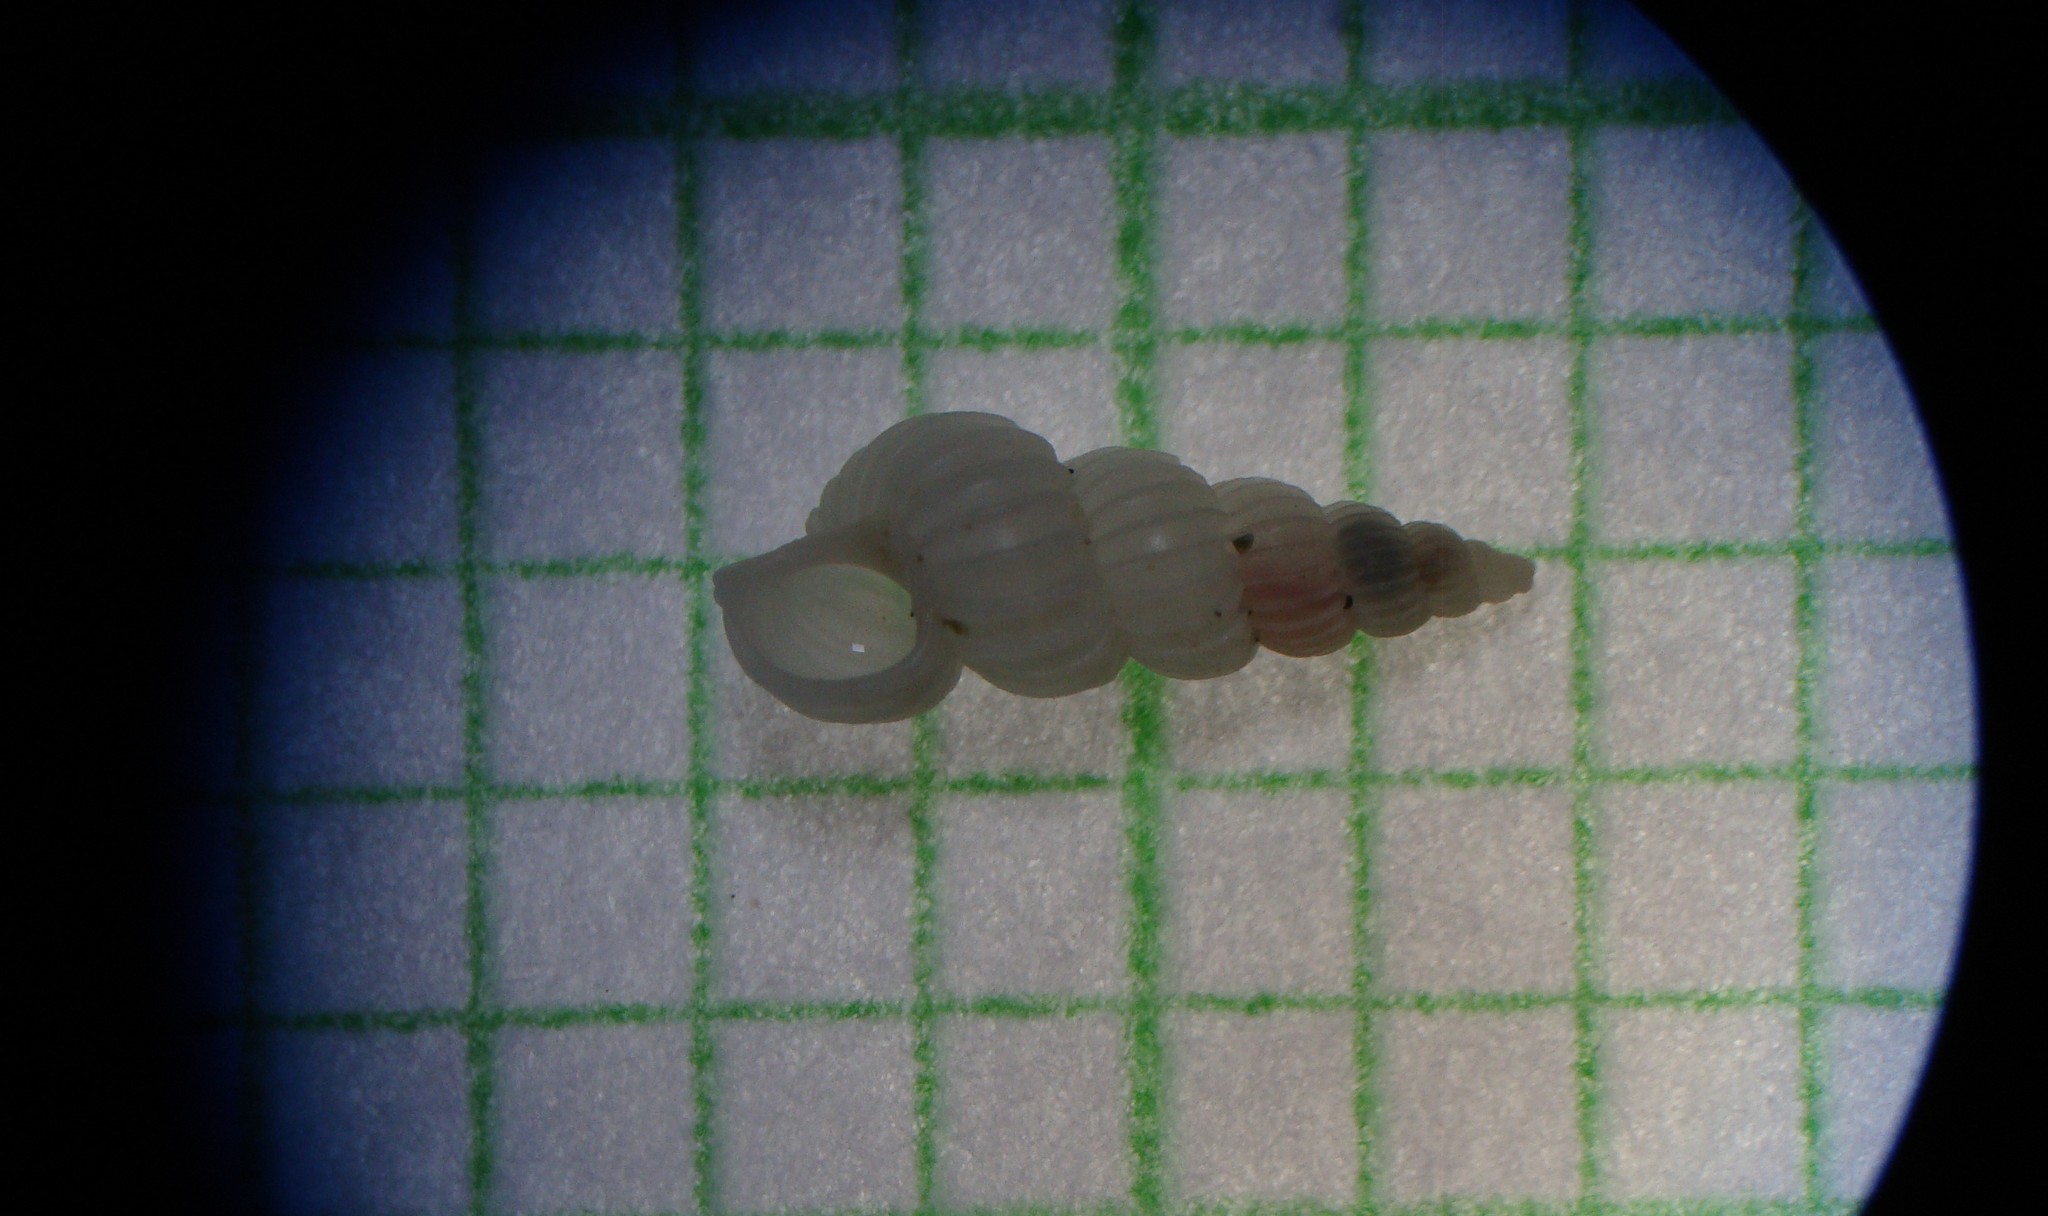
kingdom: Animalia
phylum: Mollusca
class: Gastropoda
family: Epitoniidae
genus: Epitonium
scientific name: Epitonium jukesianum
